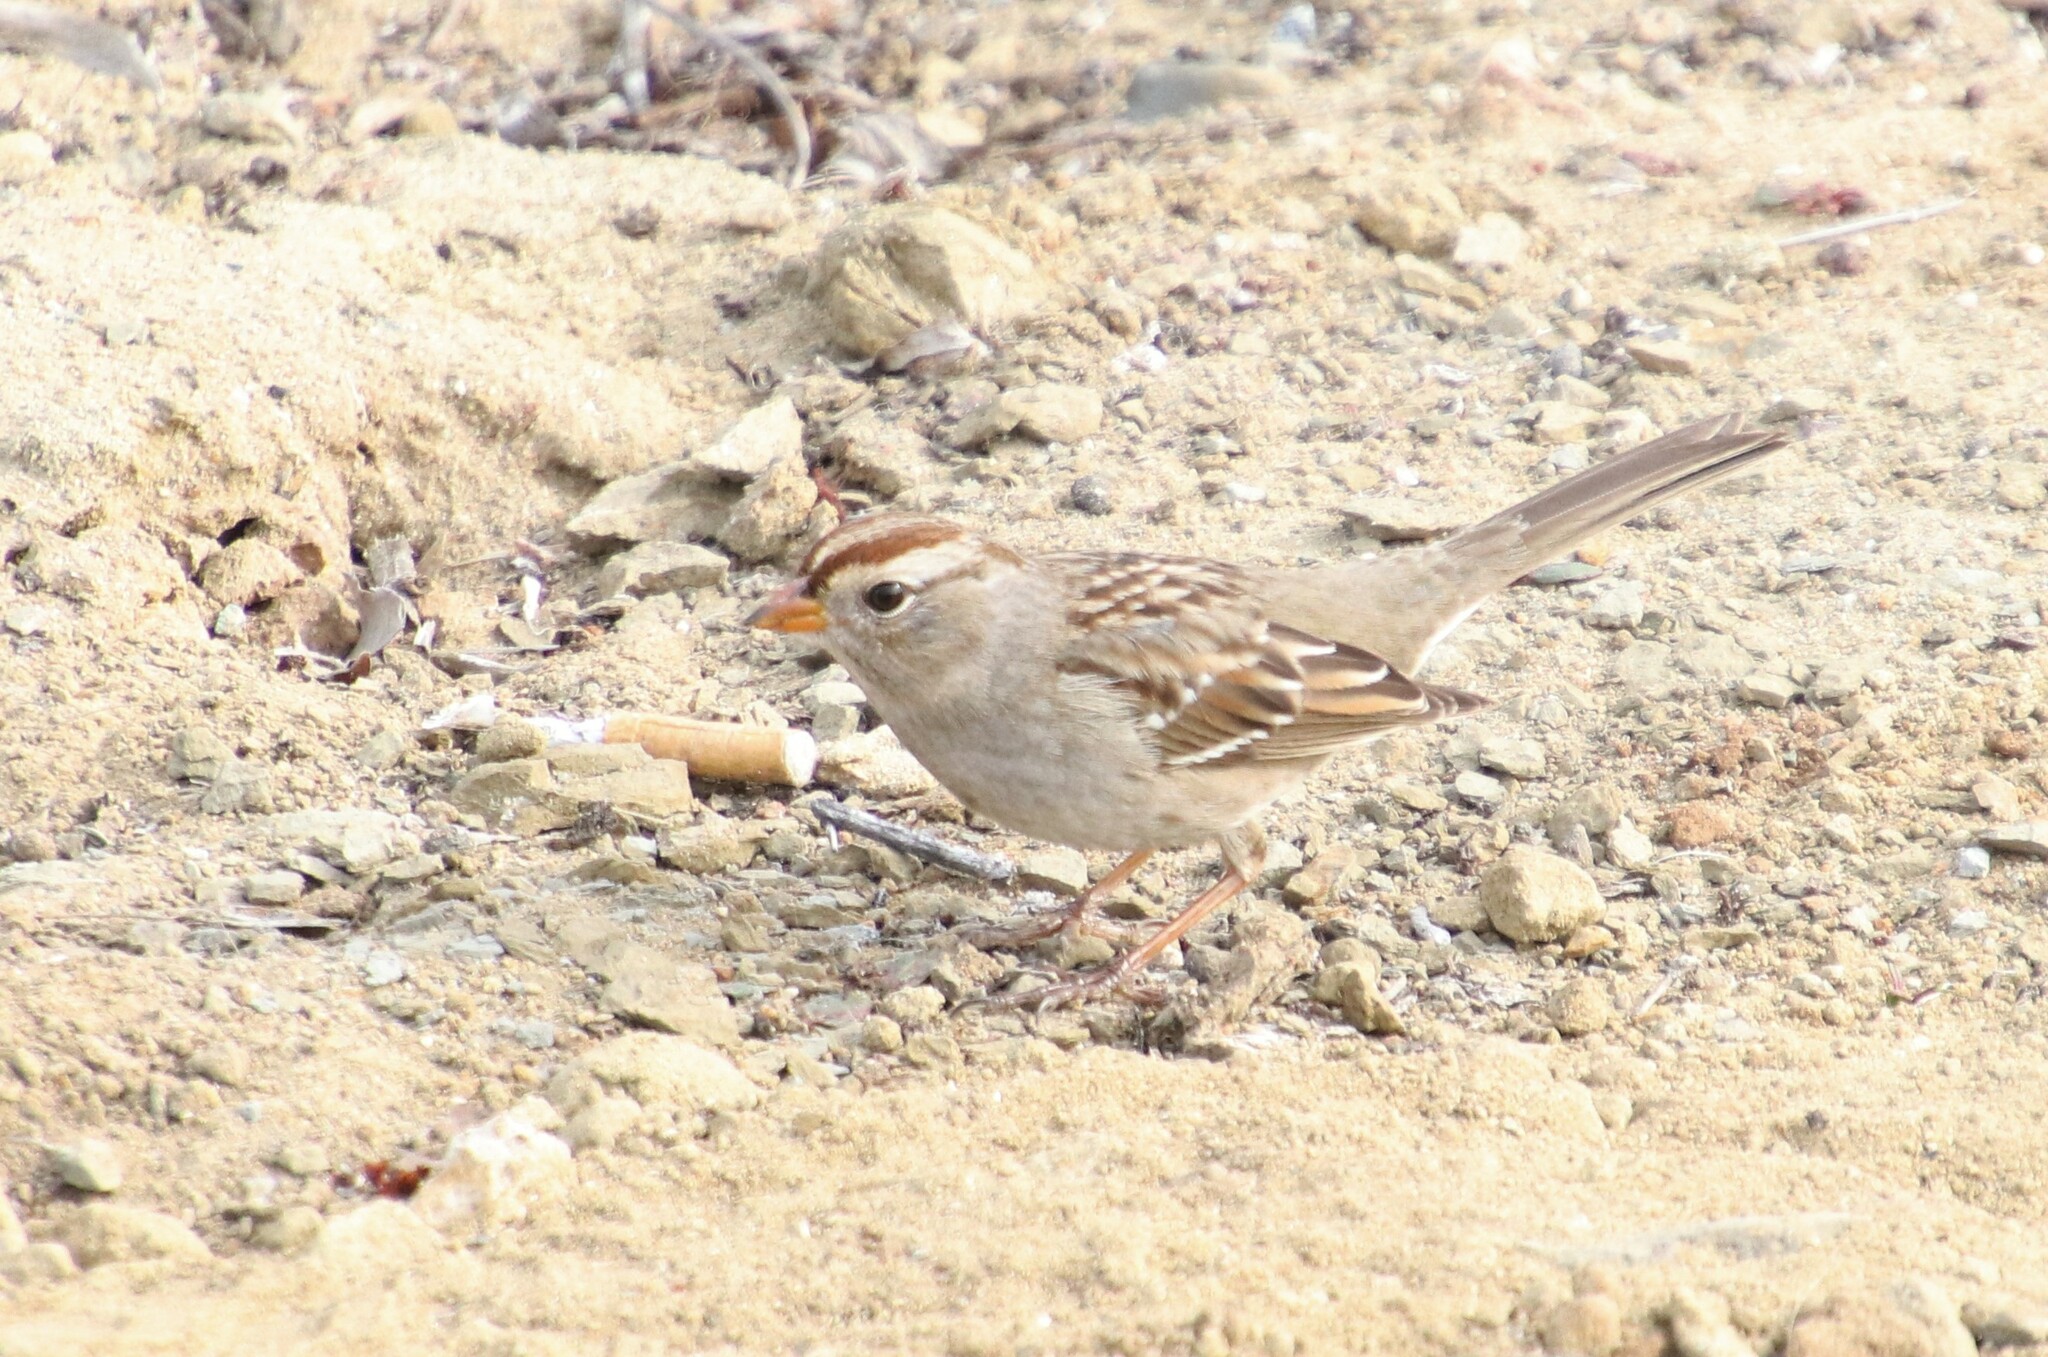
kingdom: Animalia
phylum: Chordata
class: Aves
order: Passeriformes
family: Passerellidae
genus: Zonotrichia
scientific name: Zonotrichia leucophrys
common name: White-crowned sparrow
